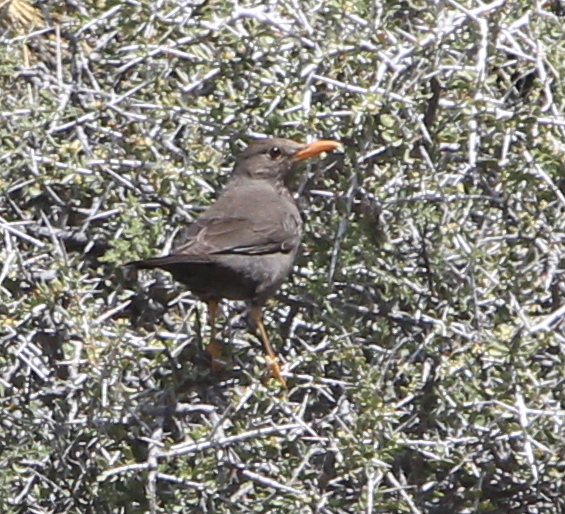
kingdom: Animalia
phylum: Chordata
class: Aves
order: Passeriformes
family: Turdidae
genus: Turdus
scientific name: Turdus chiguanco
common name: Chiguanco thrush
